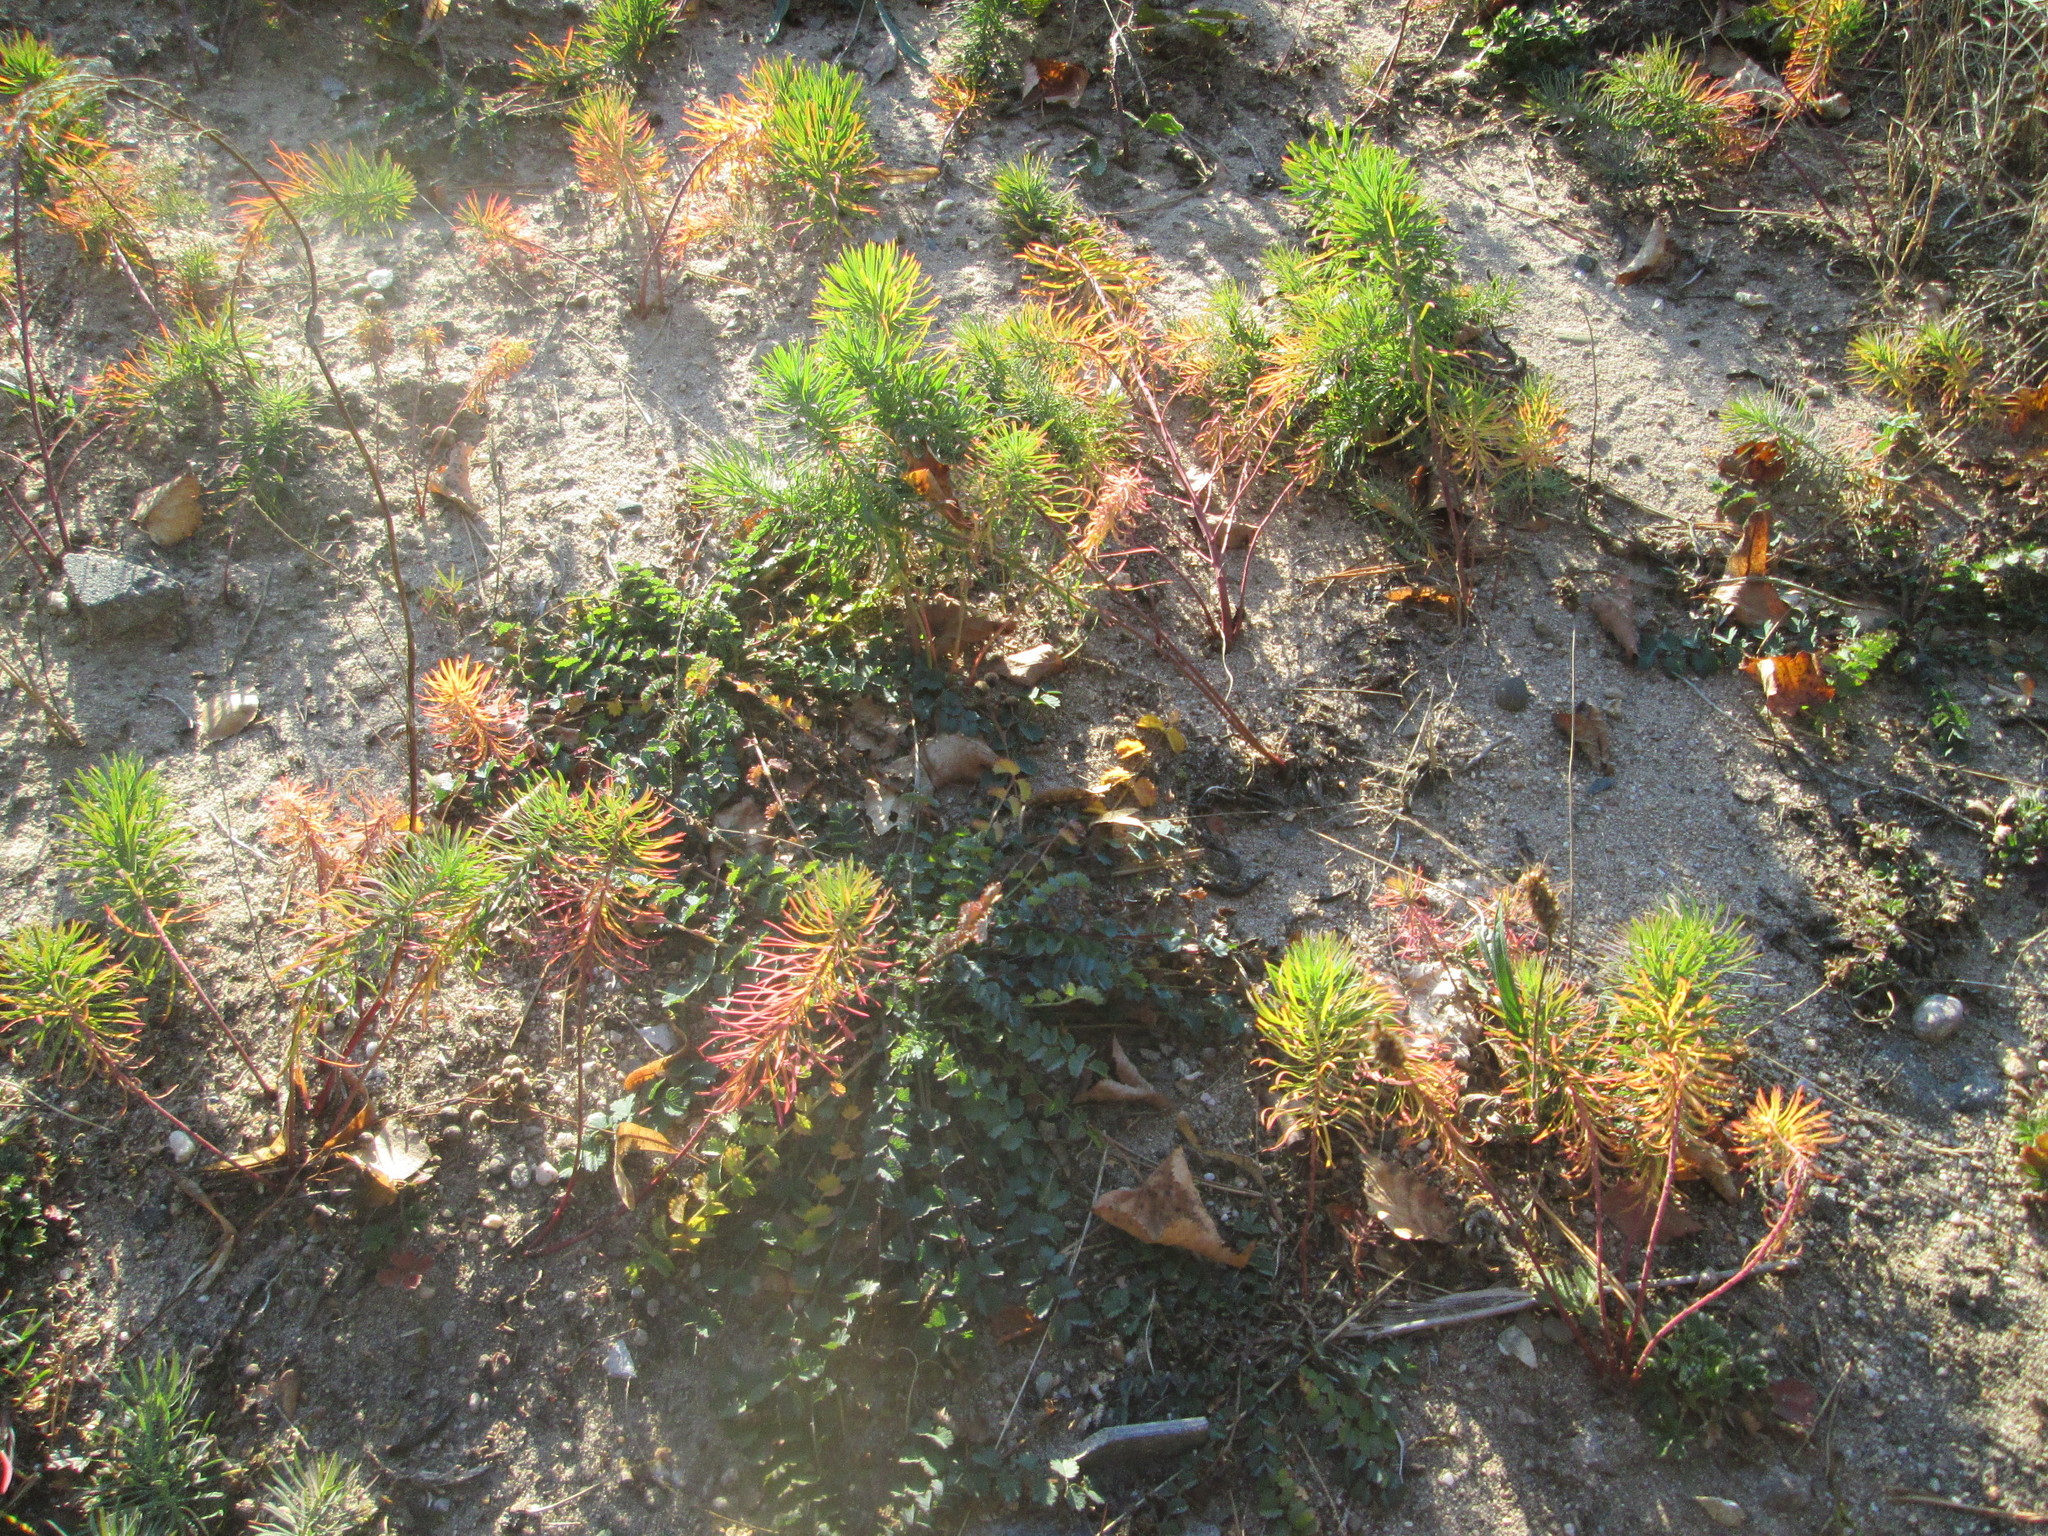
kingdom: Plantae
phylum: Tracheophyta
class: Magnoliopsida
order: Malpighiales
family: Euphorbiaceae
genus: Euphorbia
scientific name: Euphorbia cyparissias
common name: Cypress spurge
